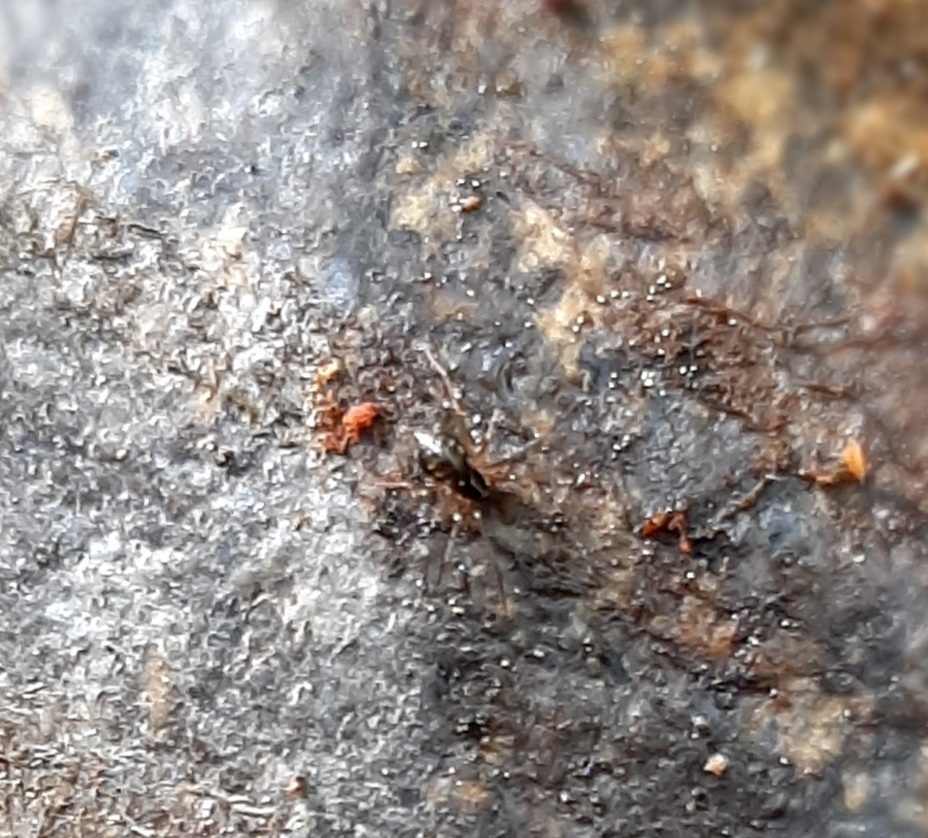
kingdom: Animalia
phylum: Arthropoda
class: Arachnida
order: Araneae
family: Linyphiidae
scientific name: Linyphiidae
